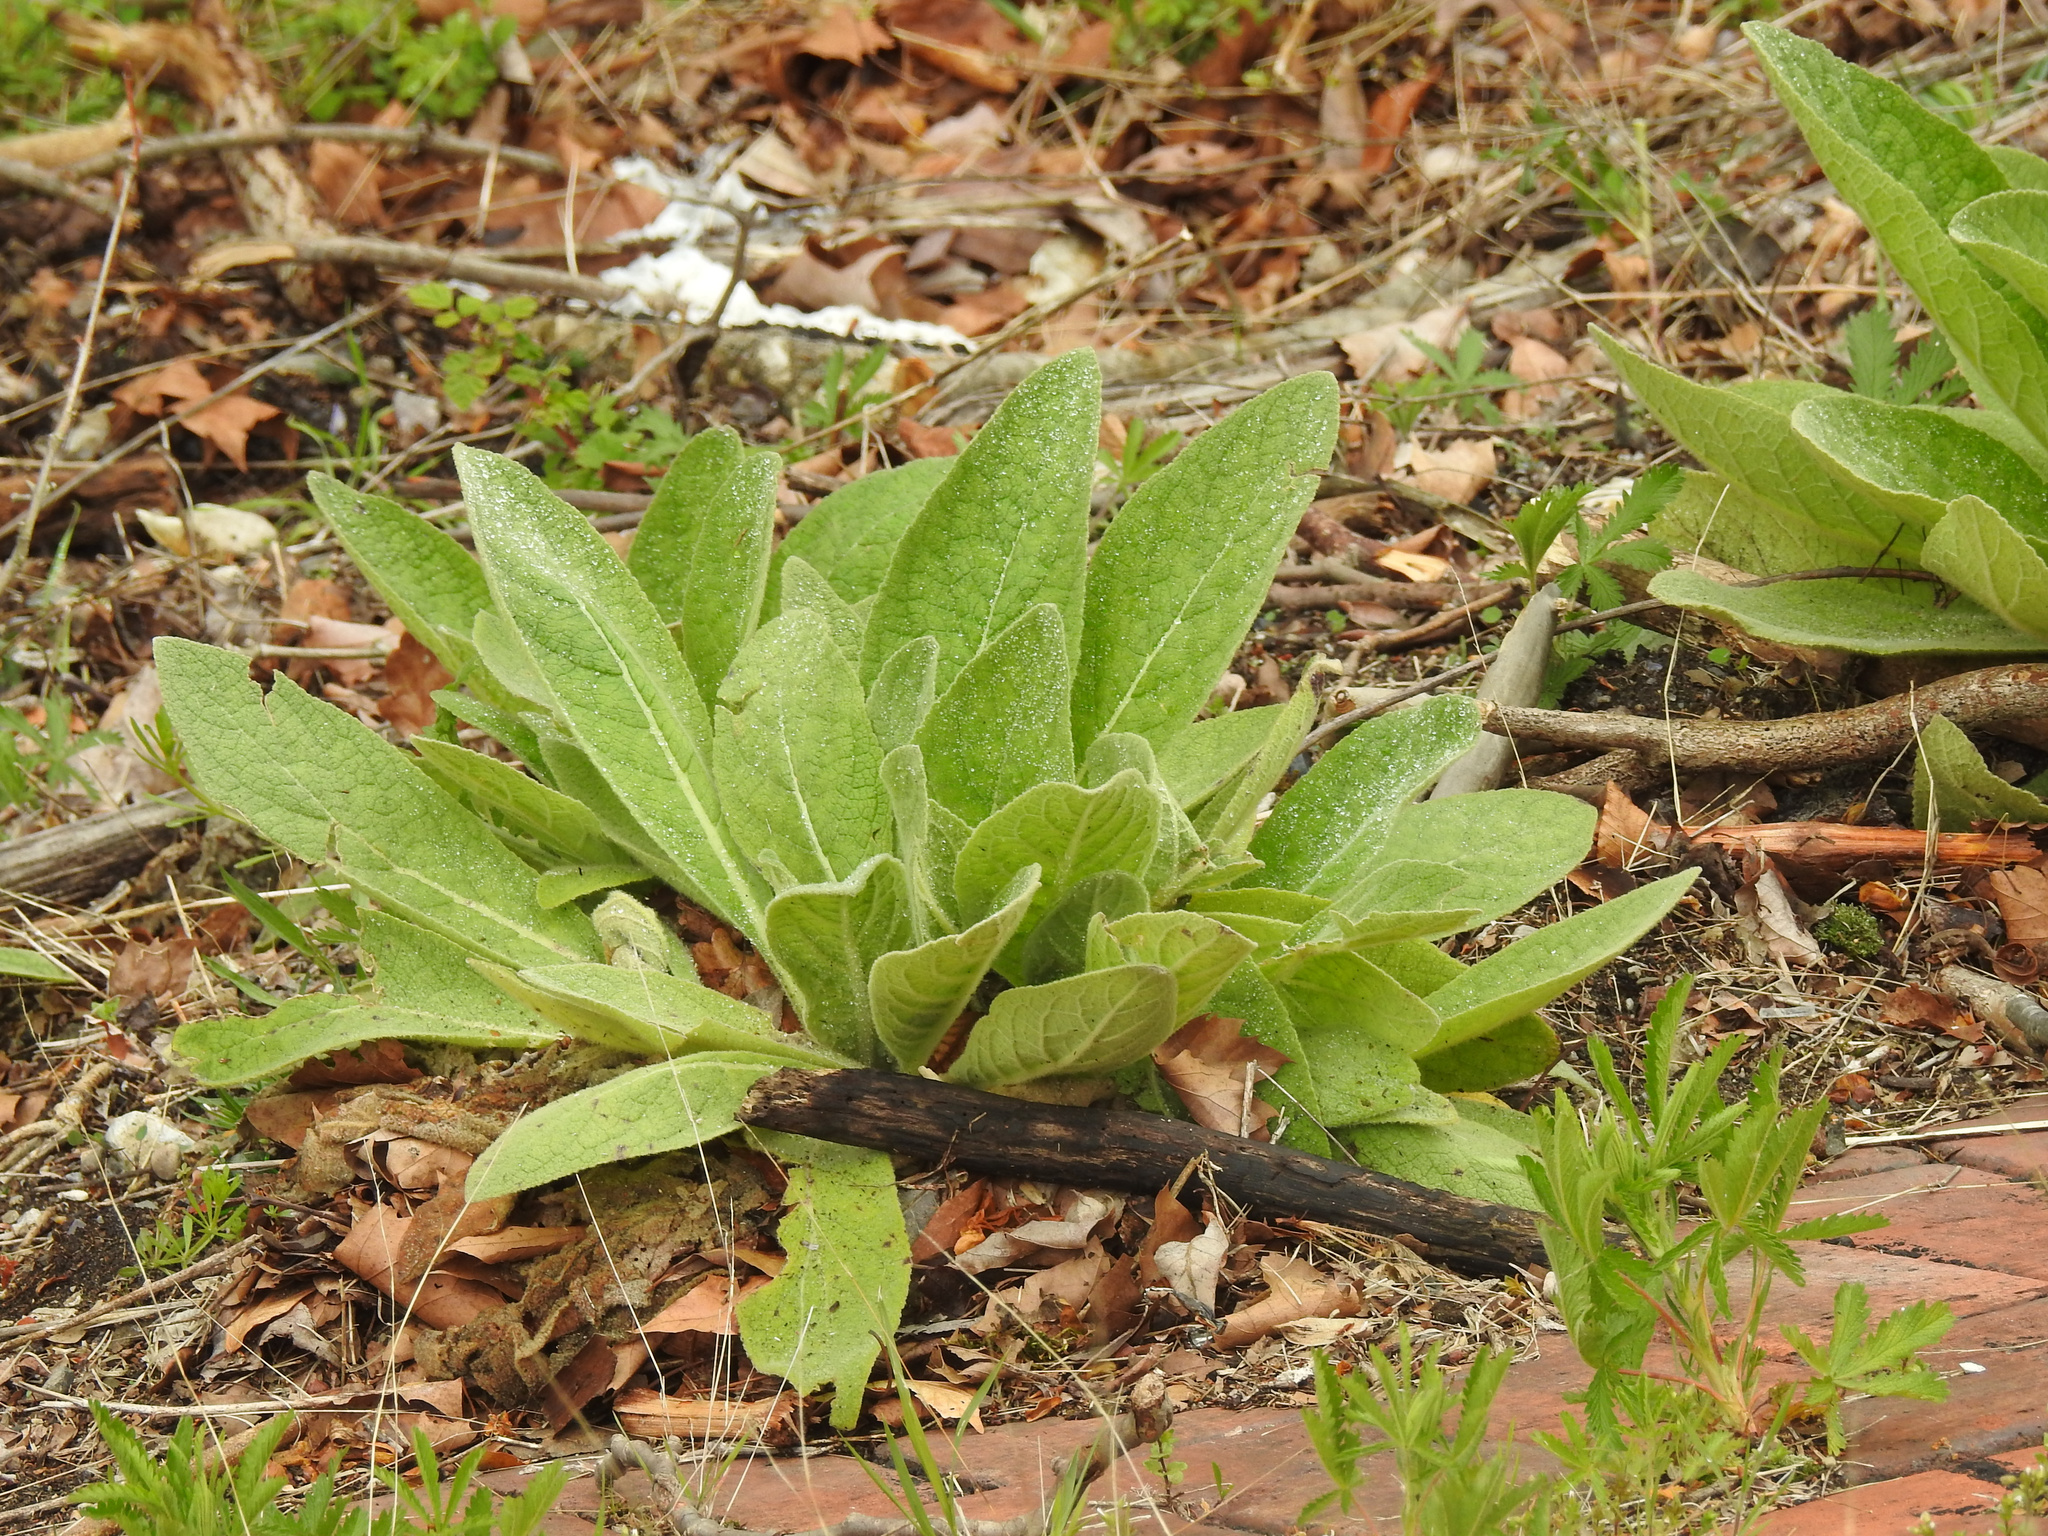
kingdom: Plantae
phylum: Tracheophyta
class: Magnoliopsida
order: Lamiales
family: Scrophulariaceae
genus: Verbascum
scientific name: Verbascum thapsus
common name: Common mullein
